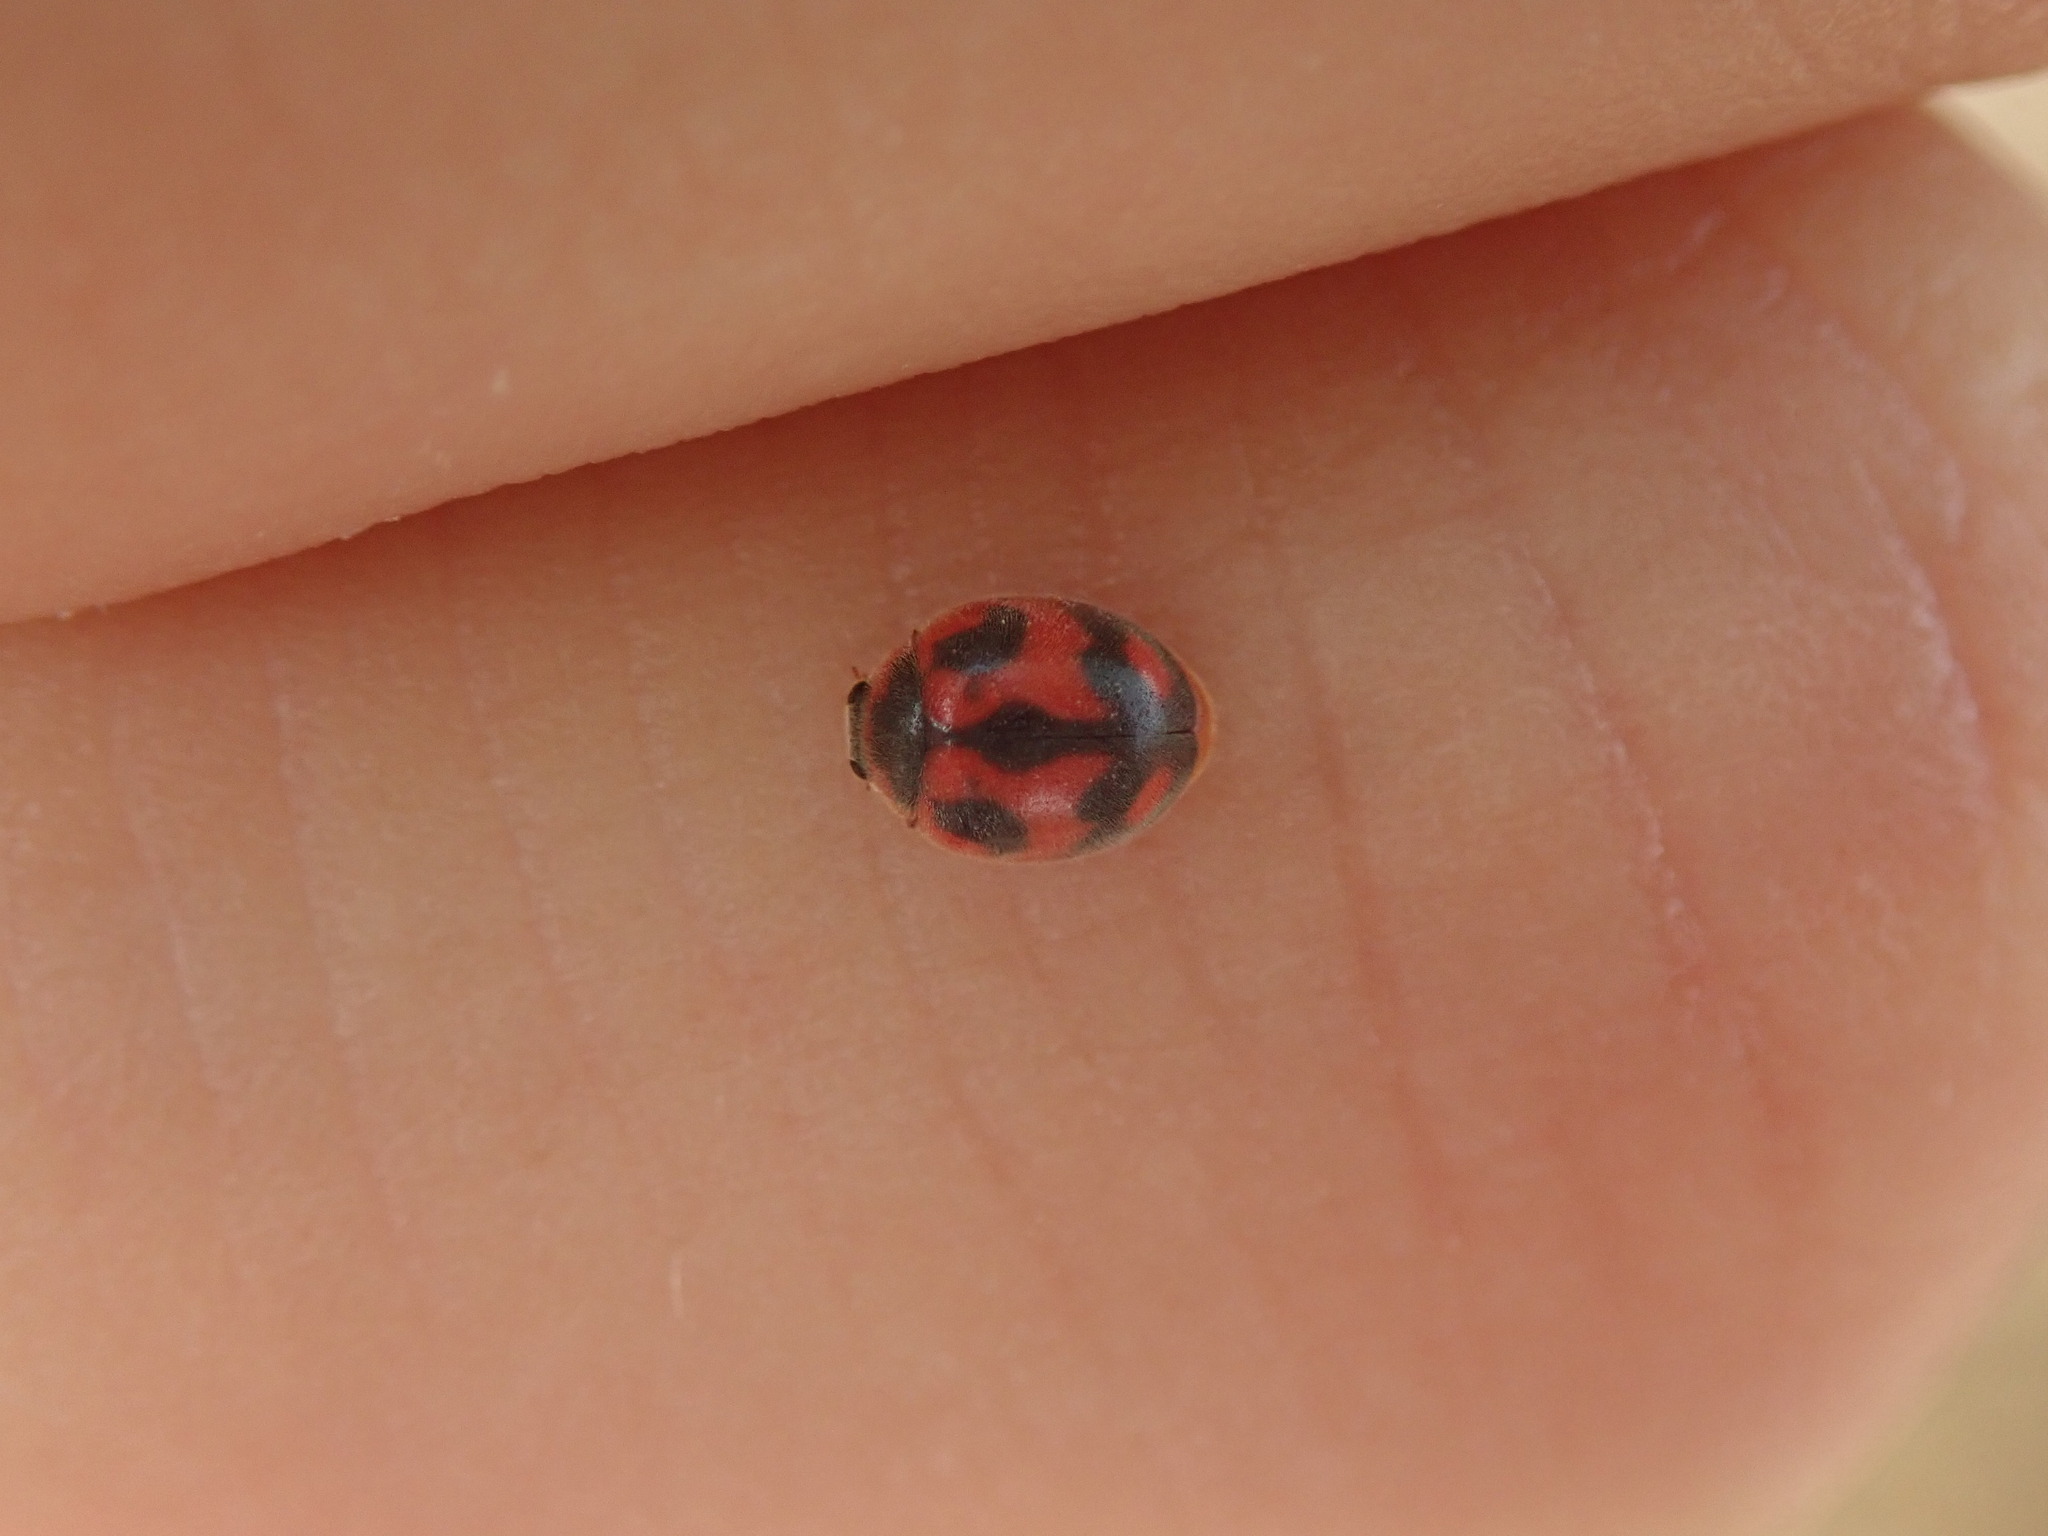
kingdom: Animalia
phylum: Arthropoda
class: Insecta
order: Coleoptera
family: Coccinellidae
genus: Novius
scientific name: Novius cardinalis
